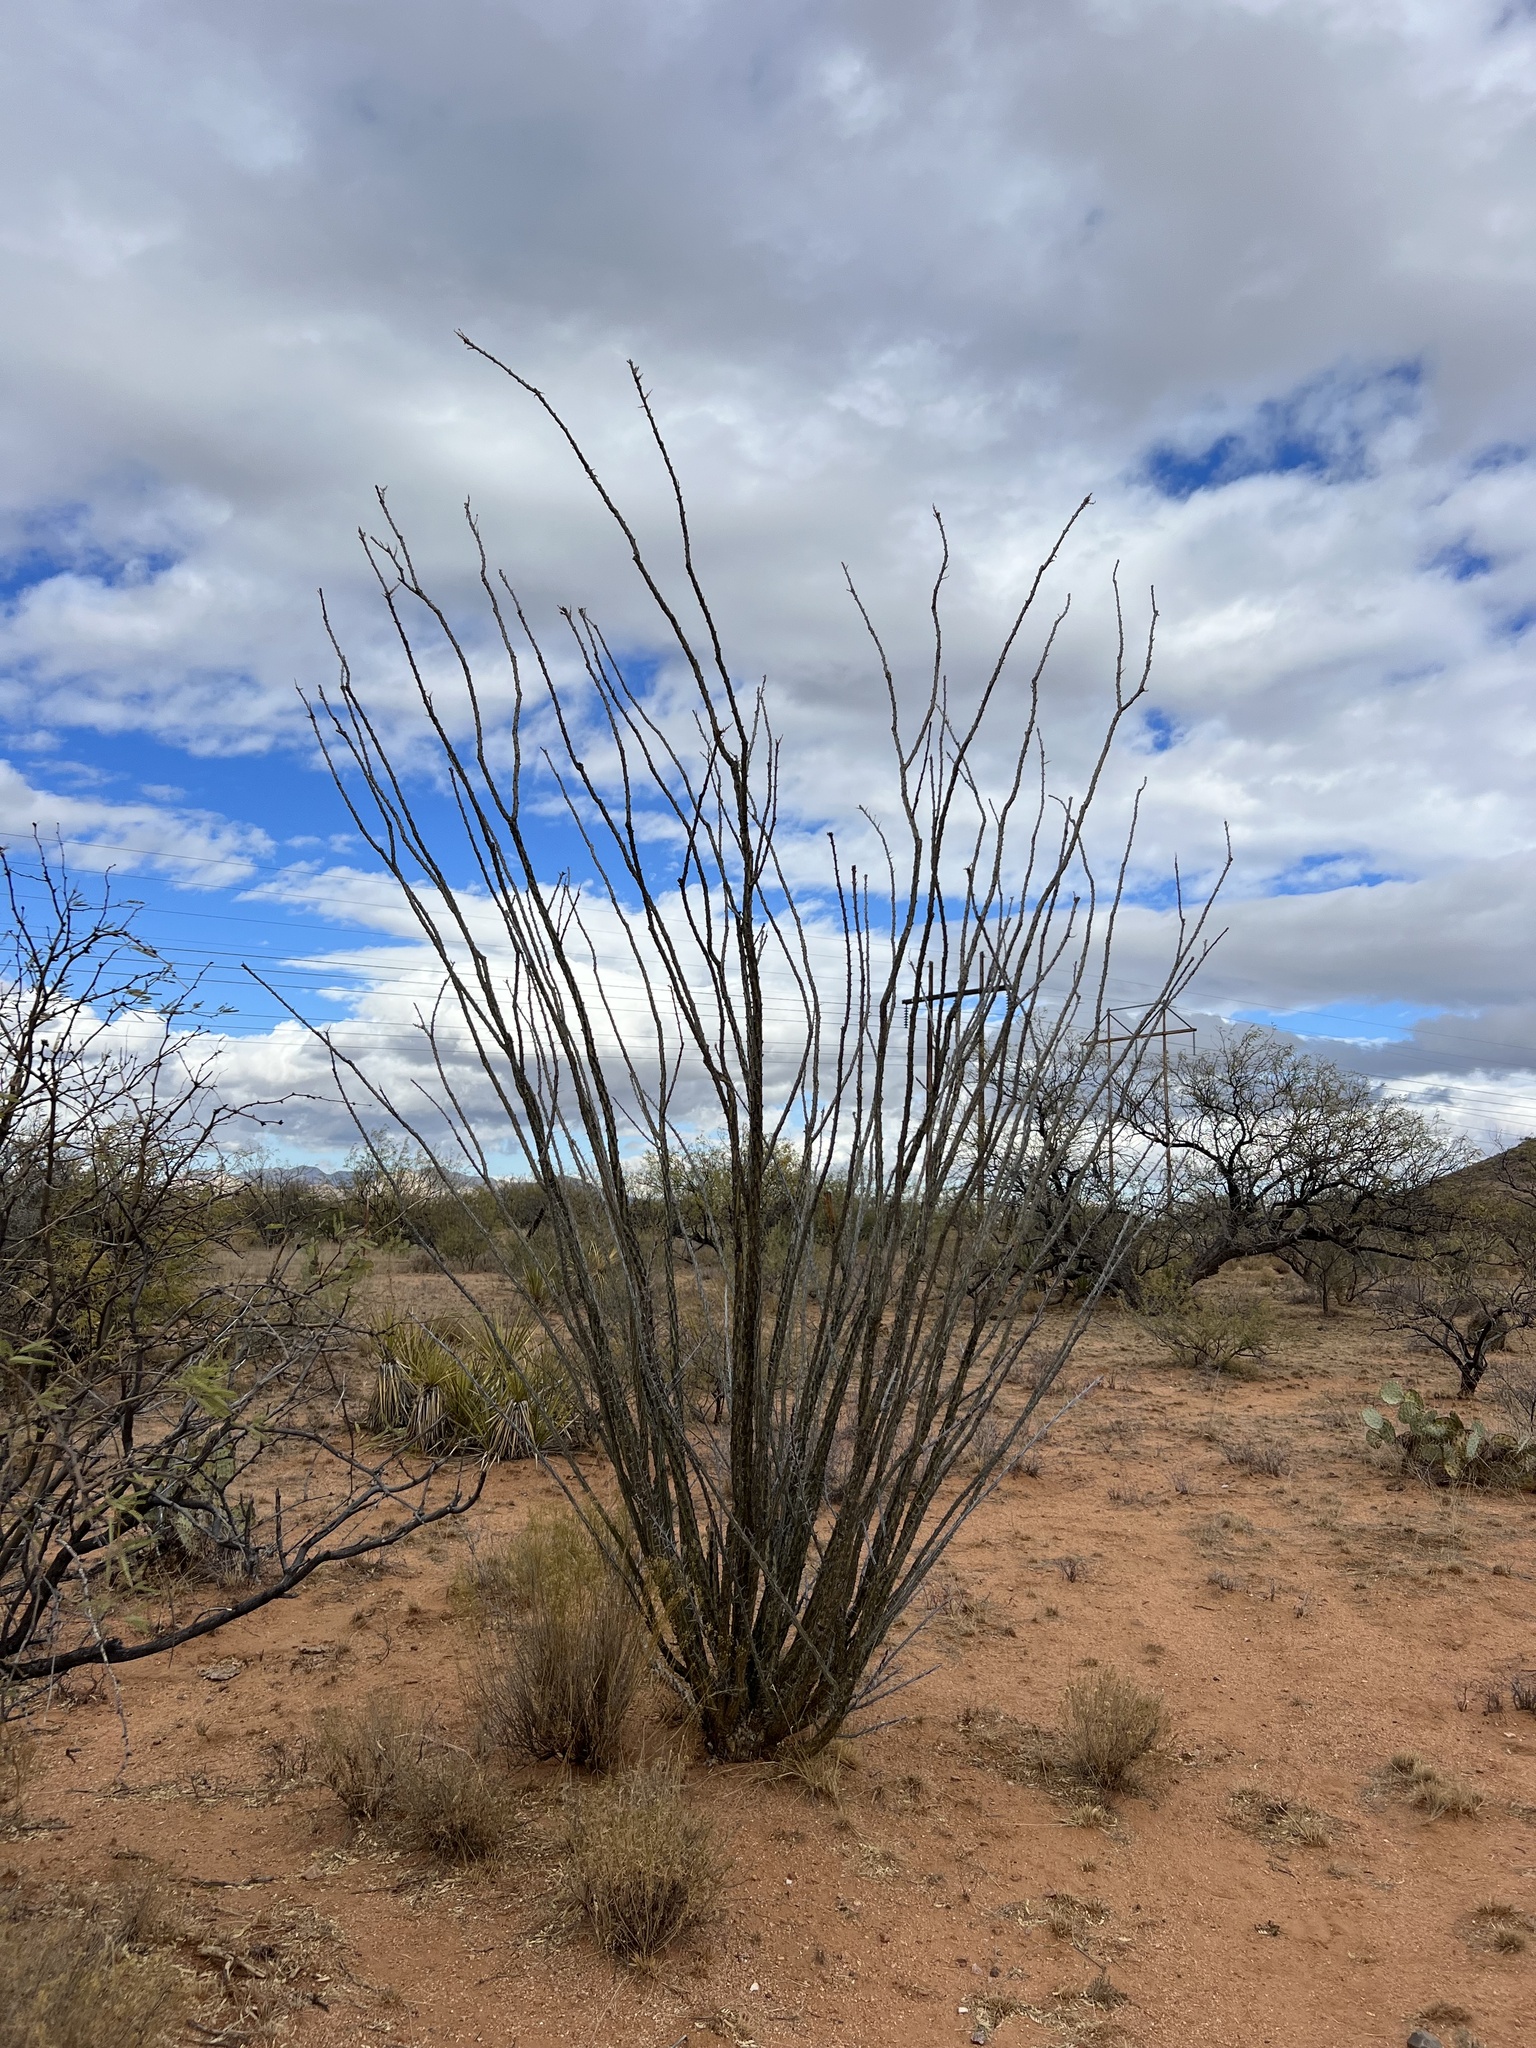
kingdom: Plantae
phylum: Tracheophyta
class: Magnoliopsida
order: Ericales
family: Fouquieriaceae
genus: Fouquieria
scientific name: Fouquieria splendens
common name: Vine-cactus
